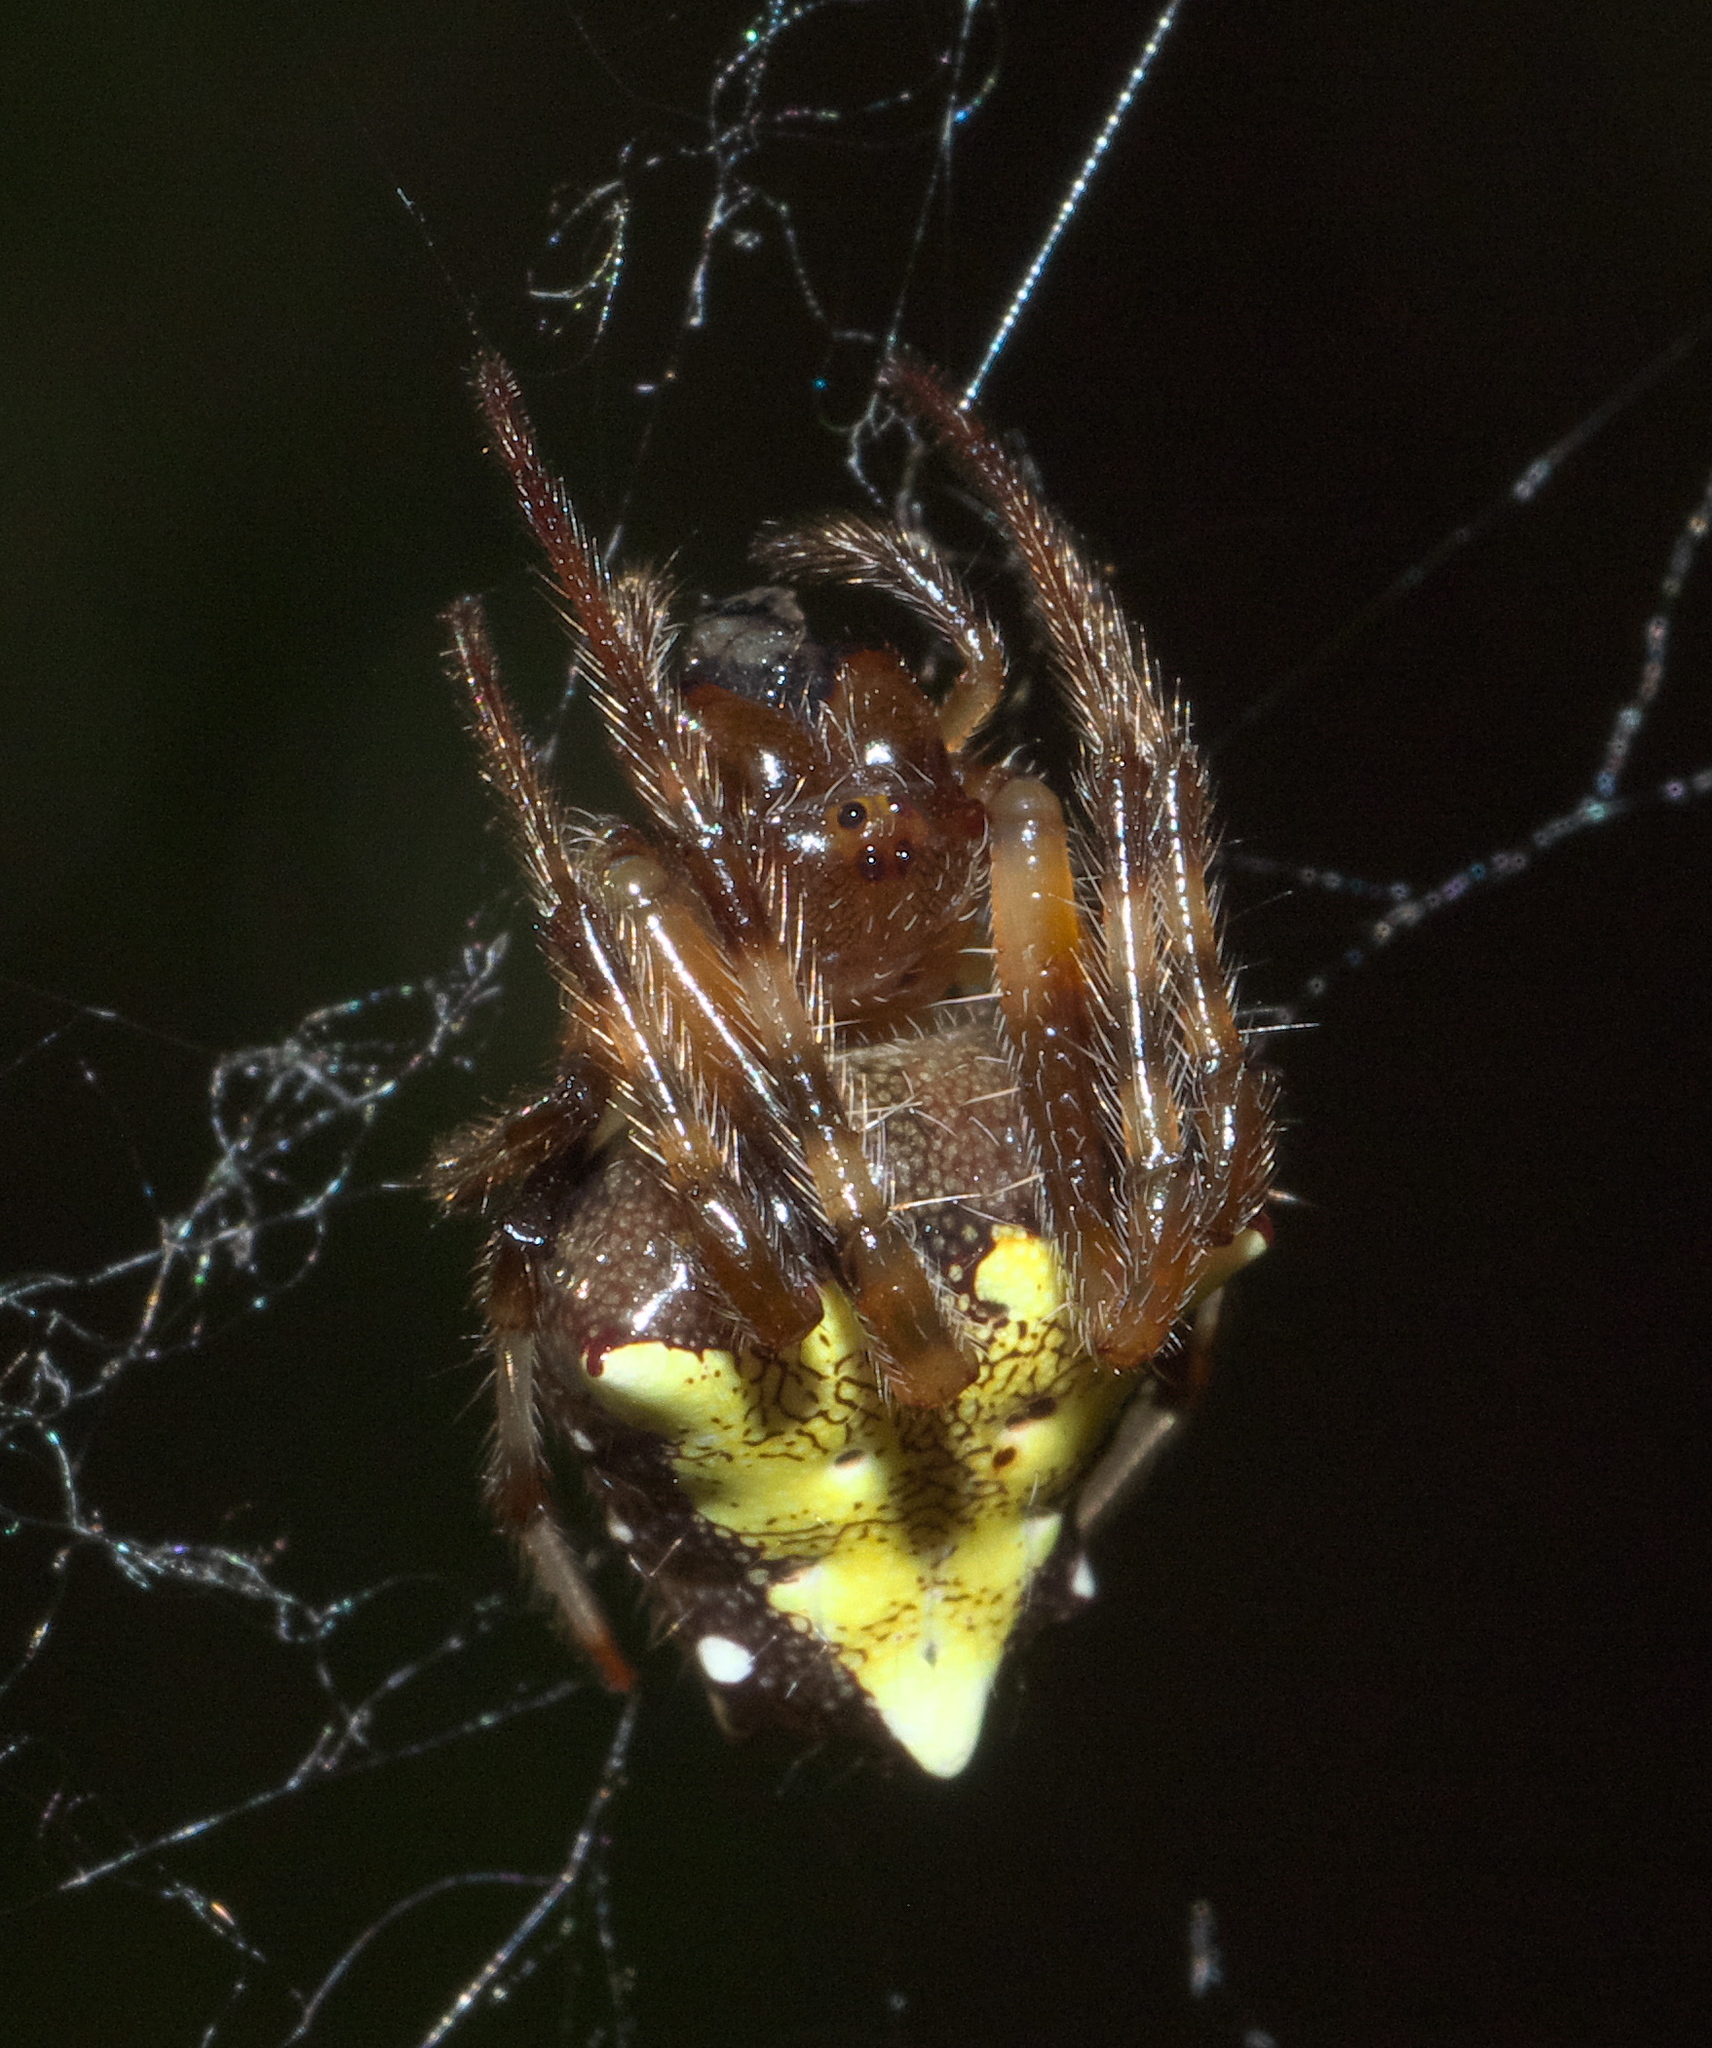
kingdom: Animalia
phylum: Arthropoda
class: Arachnida
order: Araneae
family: Araneidae
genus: Verrucosa
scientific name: Verrucosa arenata
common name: Orb weavers
